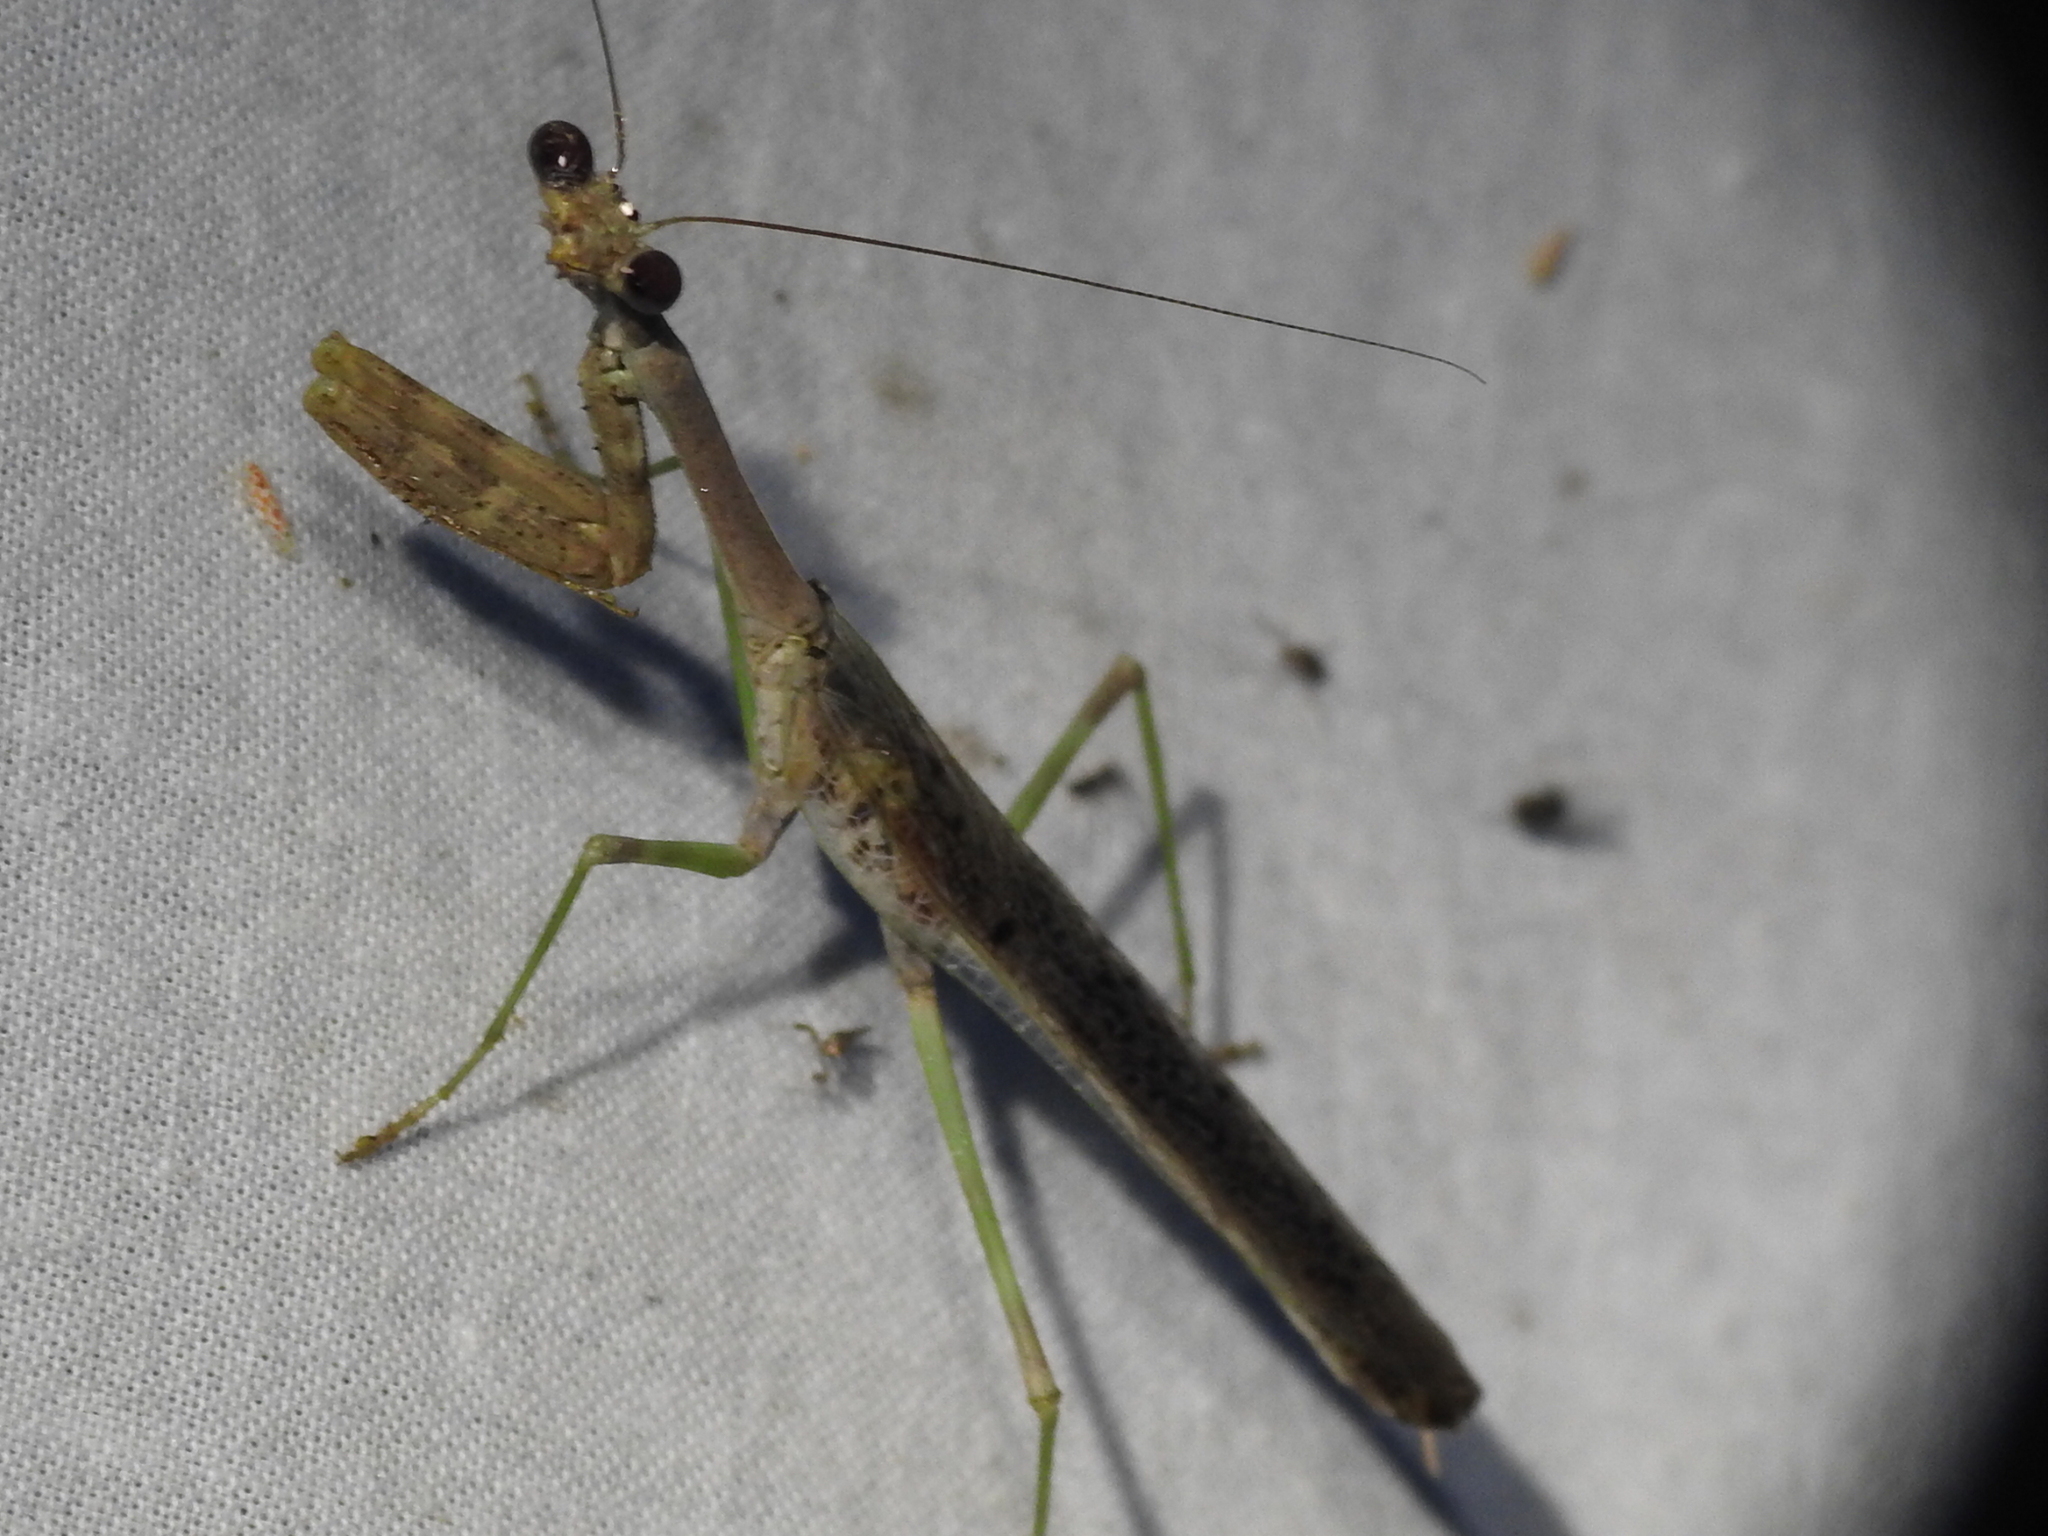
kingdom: Animalia
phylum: Arthropoda
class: Insecta
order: Mantodea
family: Mantidae
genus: Stagmomantis
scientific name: Stagmomantis carolina
